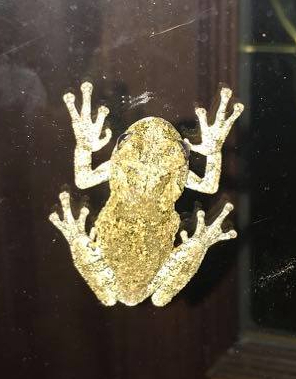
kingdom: Animalia
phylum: Chordata
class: Amphibia
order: Anura
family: Hylidae
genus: Hyla
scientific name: Hyla
